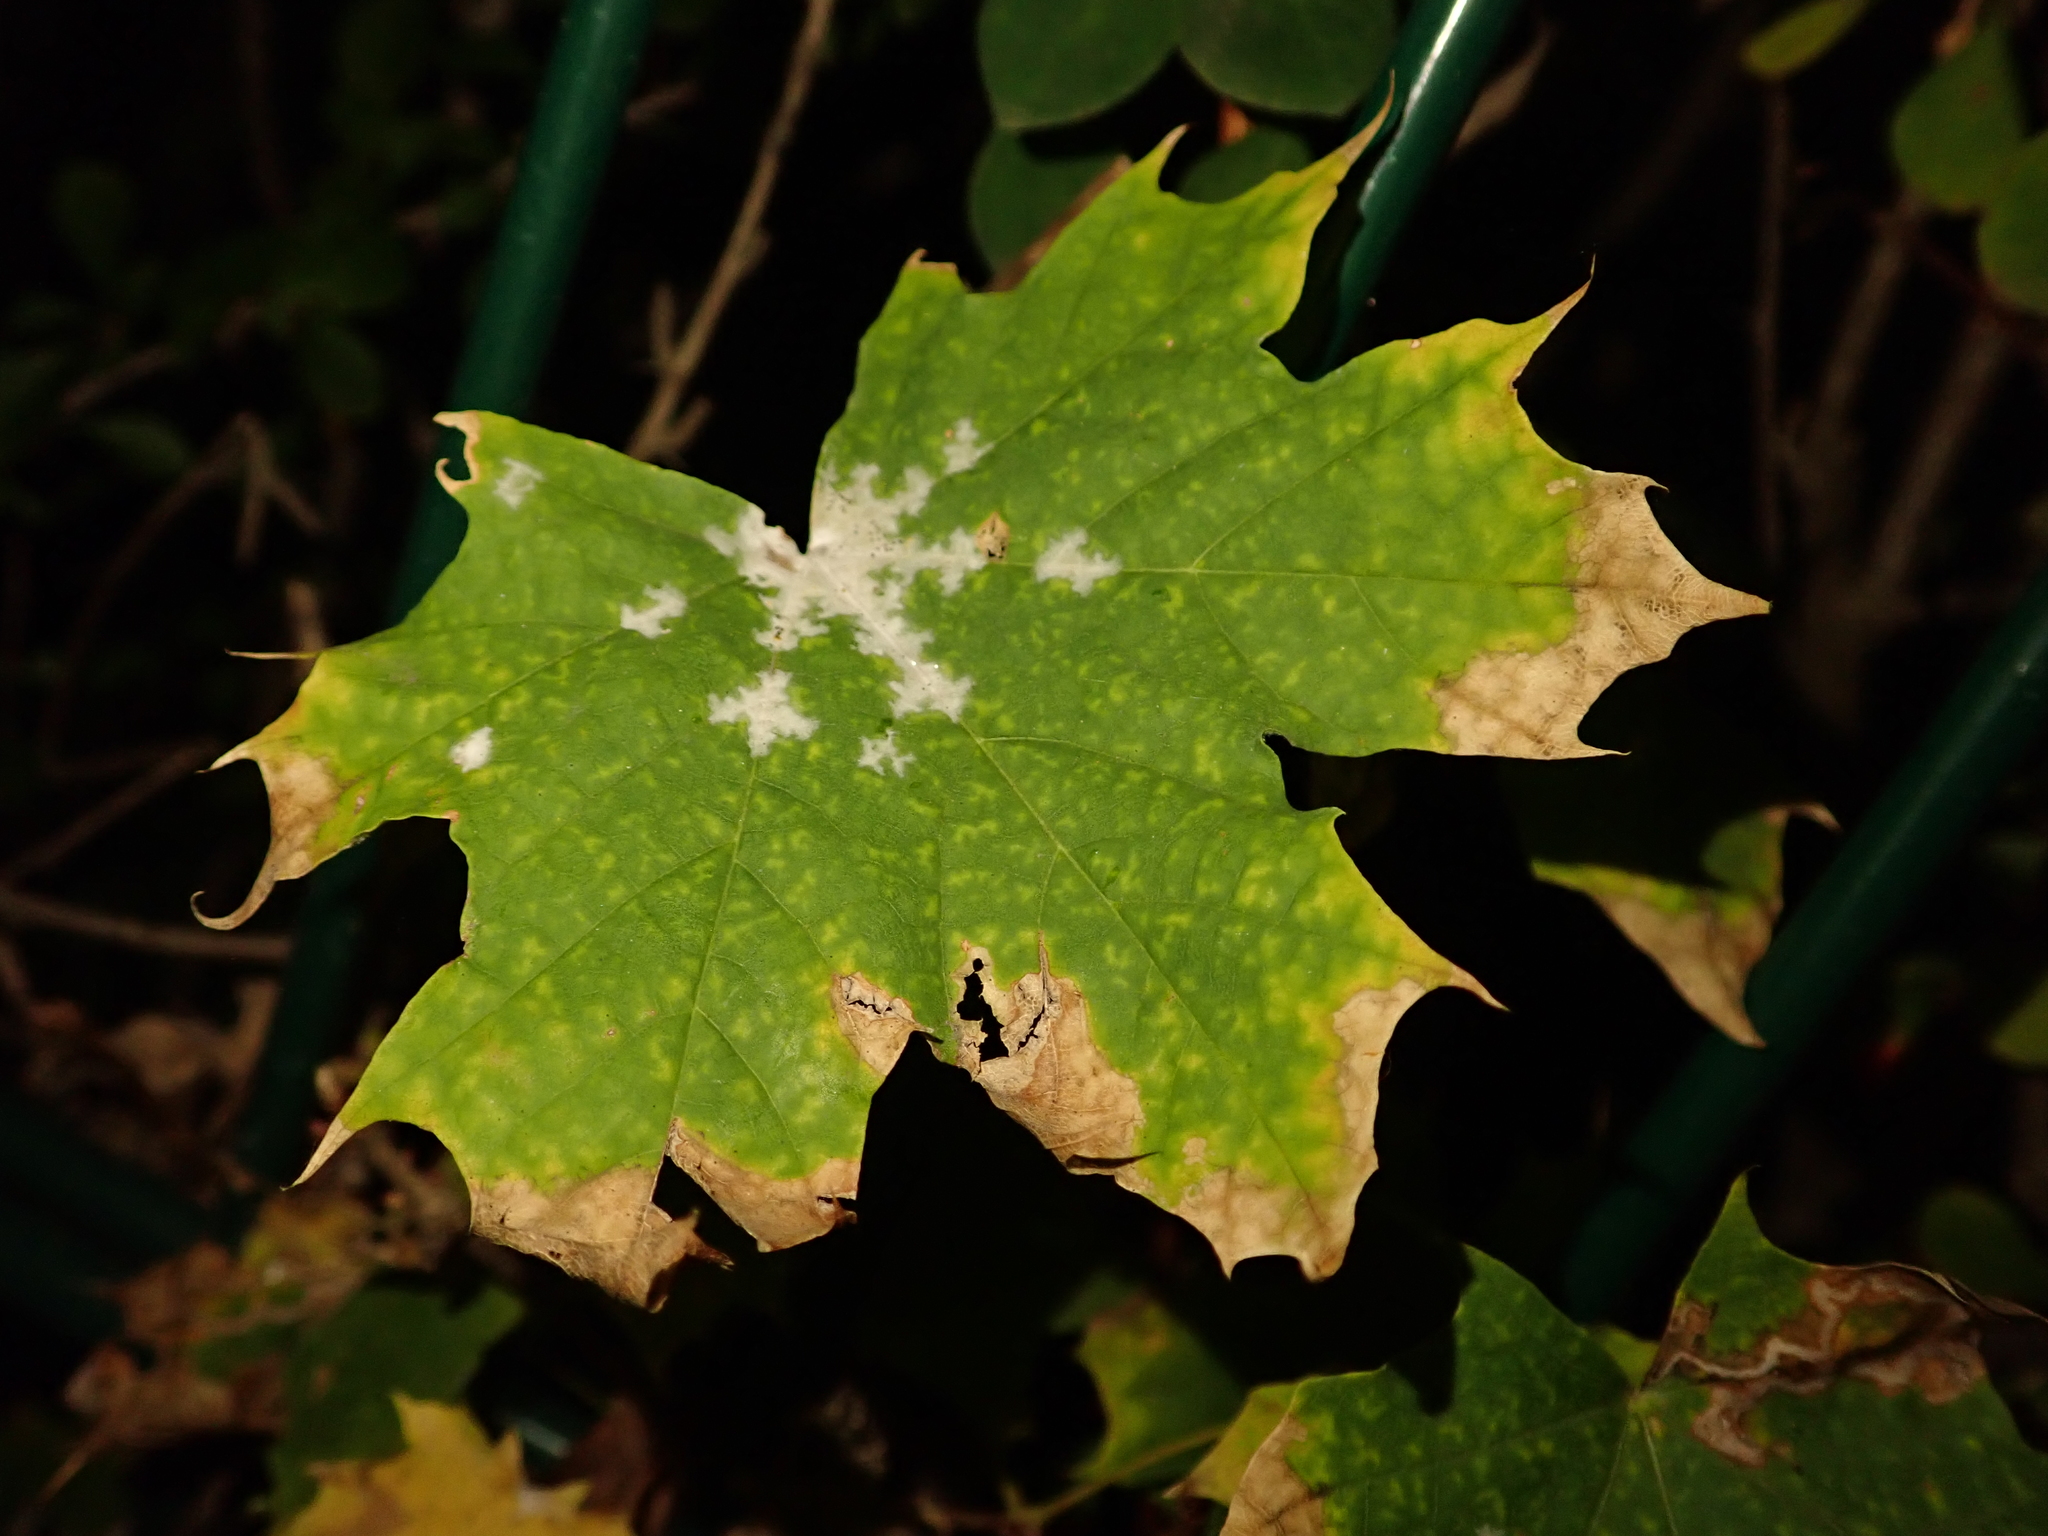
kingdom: Plantae
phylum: Tracheophyta
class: Magnoliopsida
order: Sapindales
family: Sapindaceae
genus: Acer
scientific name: Acer platanoides
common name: Norway maple
